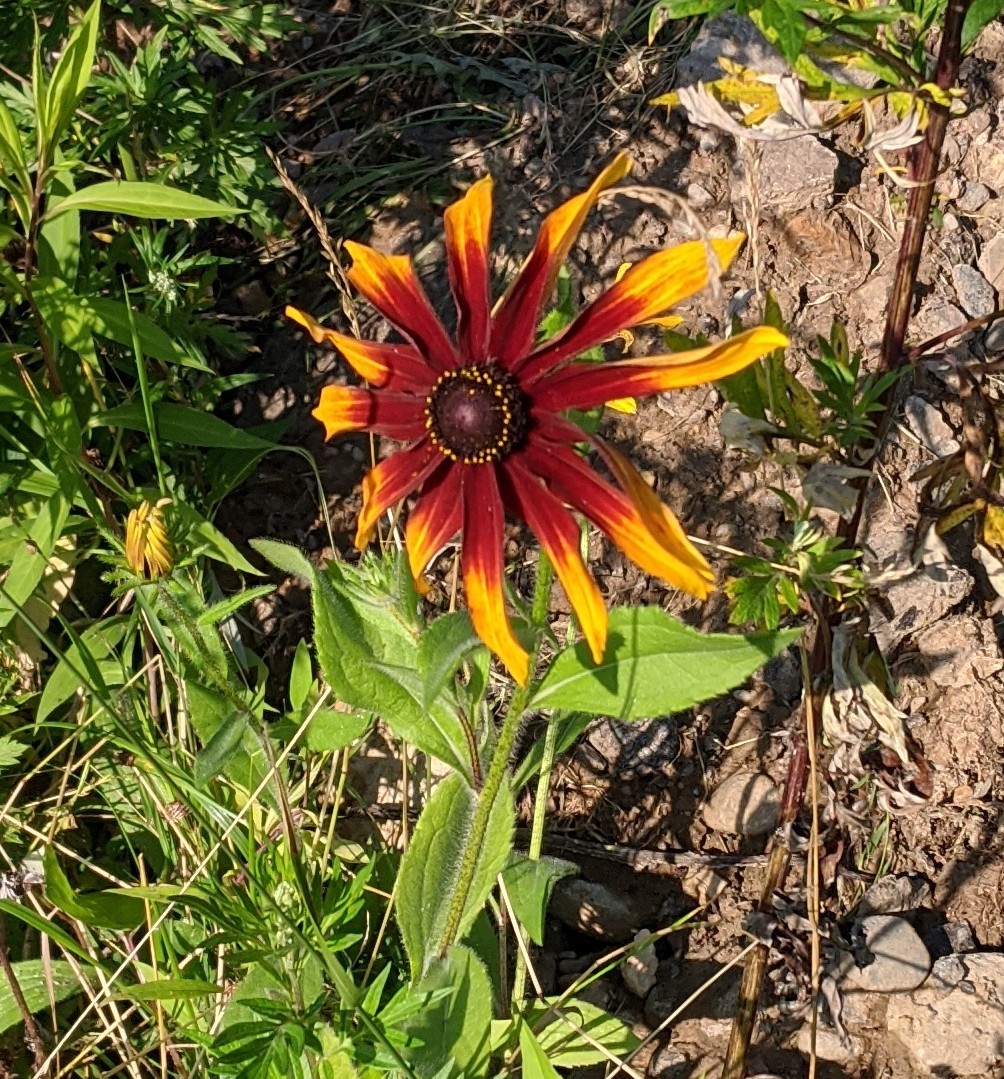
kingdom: Plantae
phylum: Tracheophyta
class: Magnoliopsida
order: Asterales
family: Asteraceae
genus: Rudbeckia
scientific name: Rudbeckia hirta
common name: Black-eyed-susan
